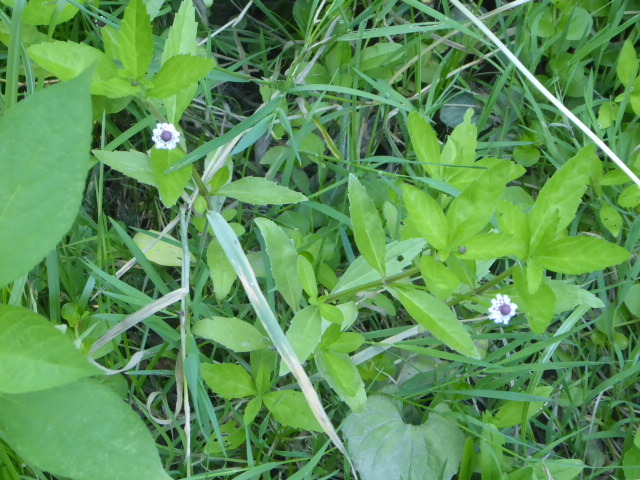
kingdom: Plantae
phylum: Tracheophyta
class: Magnoliopsida
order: Lamiales
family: Verbenaceae
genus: Phyla
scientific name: Phyla lanceolata
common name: Northern fogfruit
